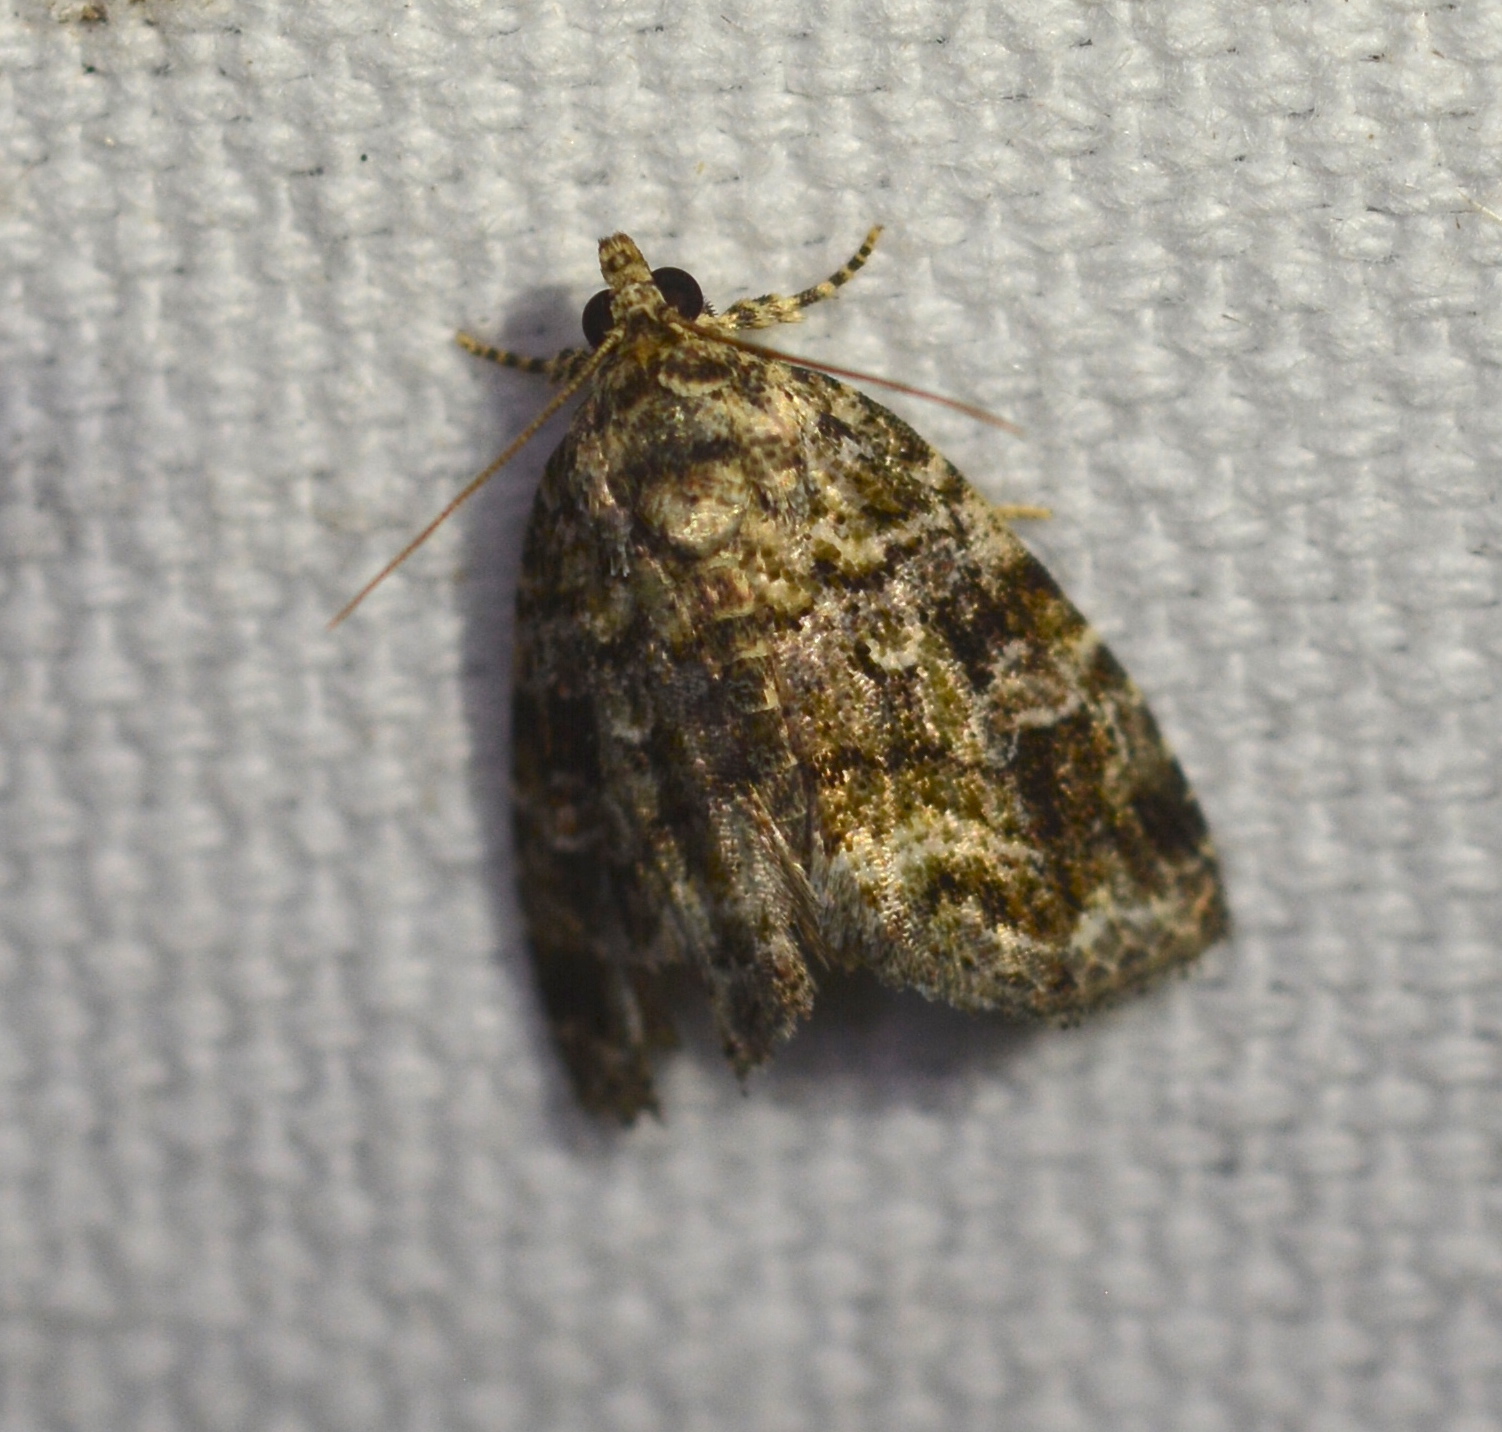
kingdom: Animalia
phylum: Arthropoda
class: Insecta
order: Lepidoptera
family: Noctuidae
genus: Protodeltote
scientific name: Protodeltote muscosula
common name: Large mossy glyph
